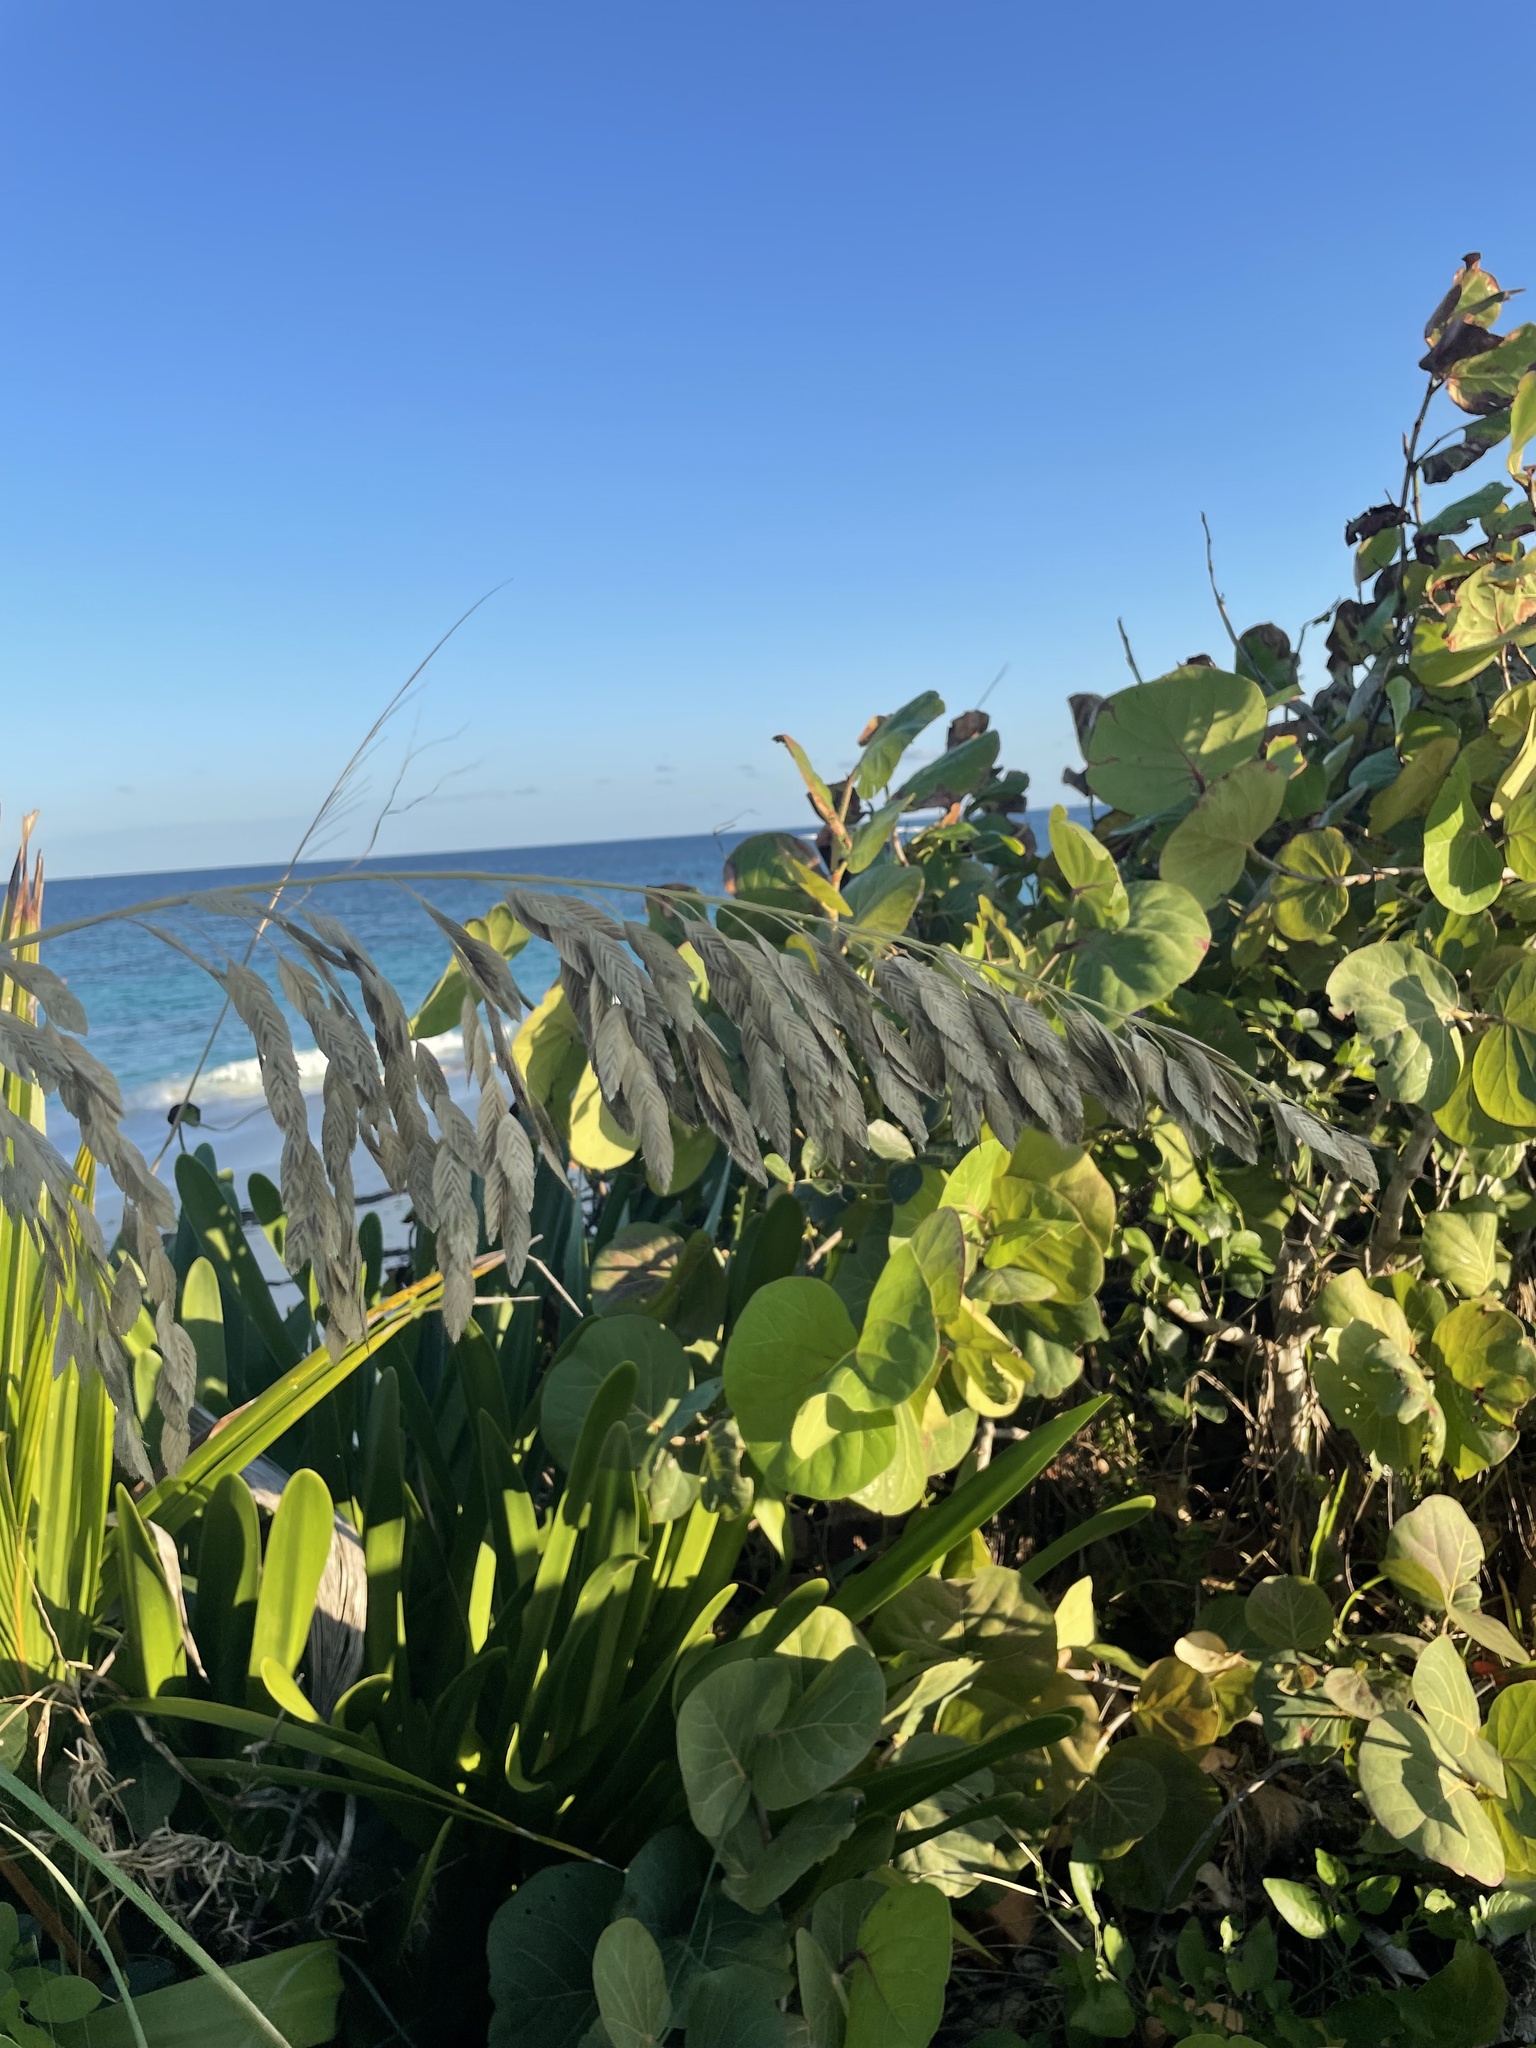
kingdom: Plantae
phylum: Tracheophyta
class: Liliopsida
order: Poales
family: Poaceae
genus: Uniola
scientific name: Uniola paniculata
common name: Seaside-oats
